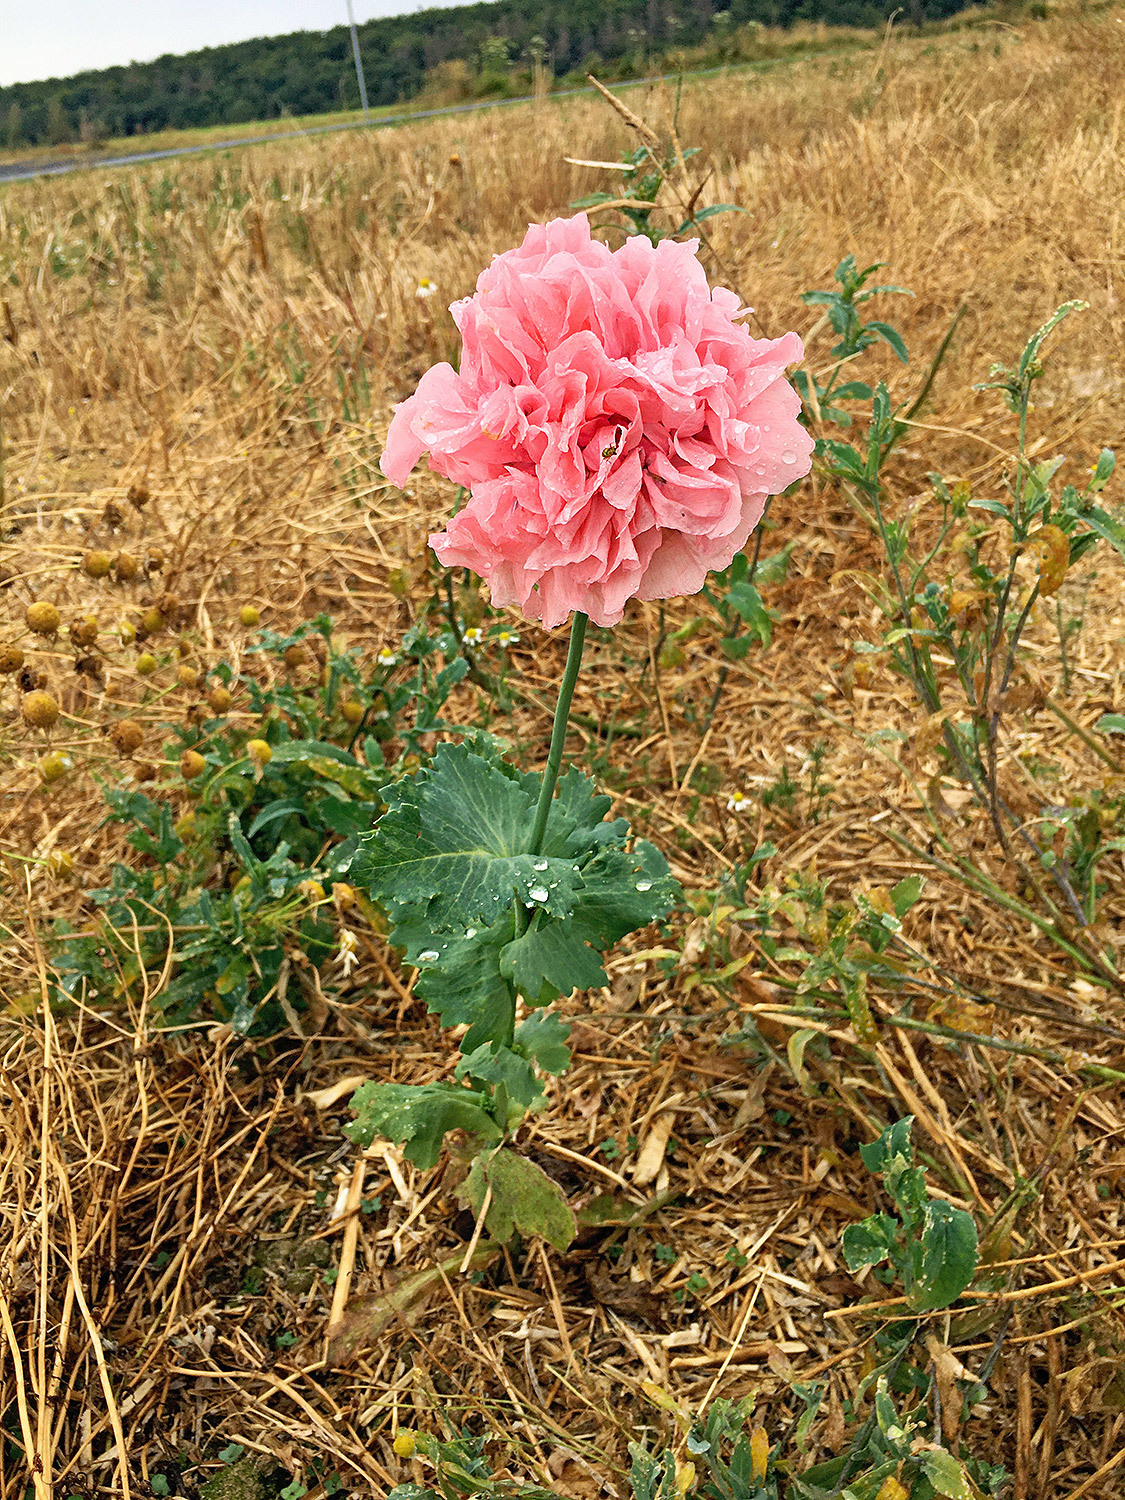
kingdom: Plantae
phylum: Tracheophyta
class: Magnoliopsida
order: Ranunculales
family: Papaveraceae
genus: Papaver
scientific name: Papaver somniferum
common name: Opium poppy
